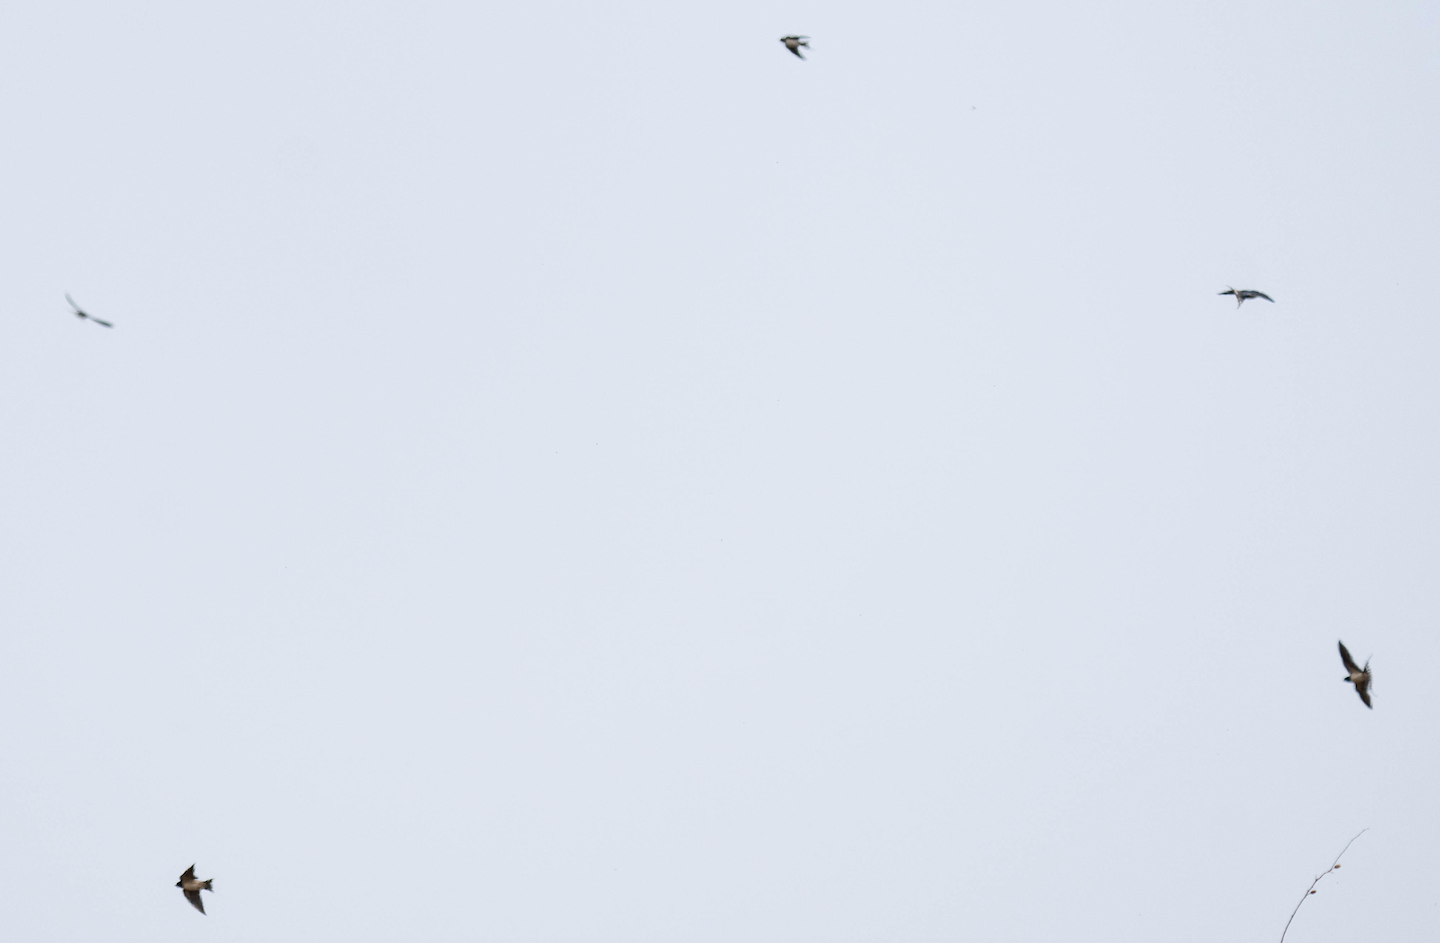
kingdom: Animalia
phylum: Chordata
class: Aves
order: Passeriformes
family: Hirundinidae
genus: Hirundo
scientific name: Hirundo rustica
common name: Barn swallow
